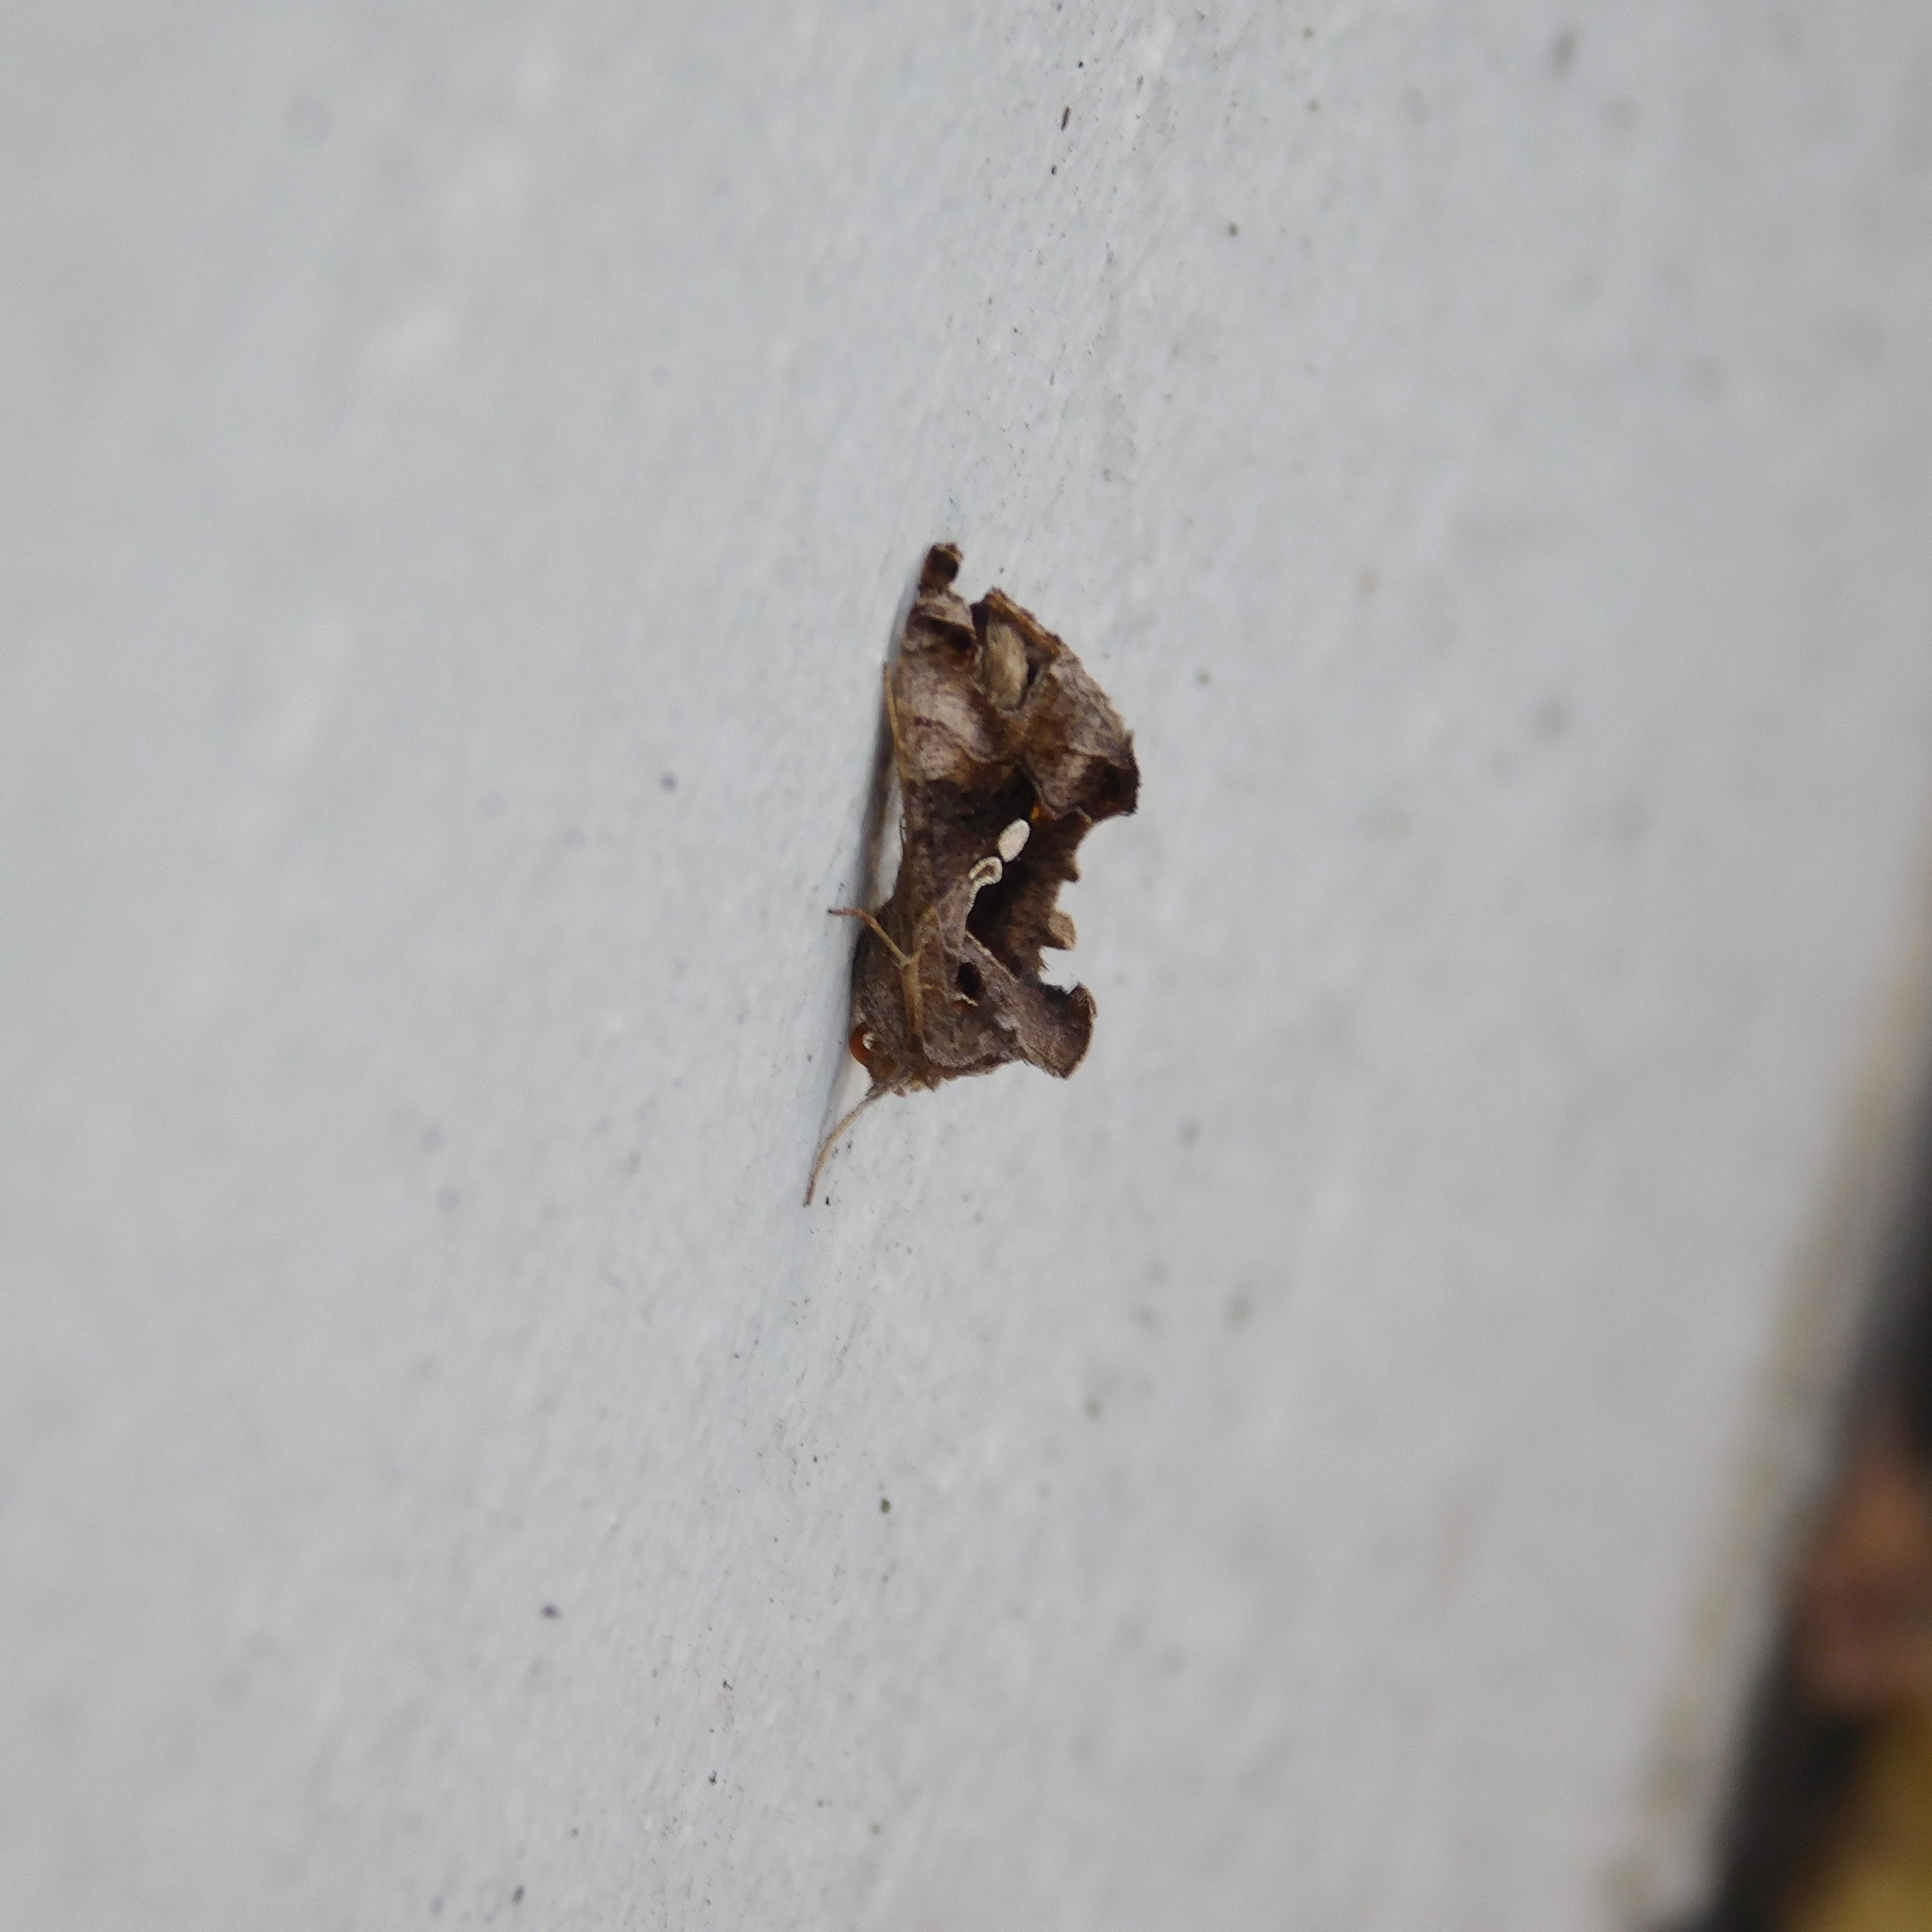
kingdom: Animalia
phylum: Arthropoda
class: Insecta
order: Lepidoptera
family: Noctuidae
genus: Chrysodeixis
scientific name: Chrysodeixis eriosoma
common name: Green garden looper
